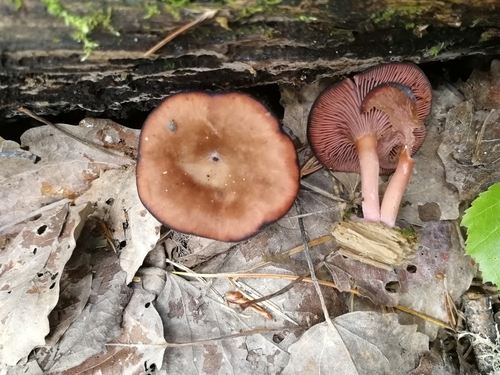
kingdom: Fungi
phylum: Basidiomycota
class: Agaricomycetes
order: Agaricales
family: Hygrophoraceae
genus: Arrhenia
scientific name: Arrhenia discorosea
